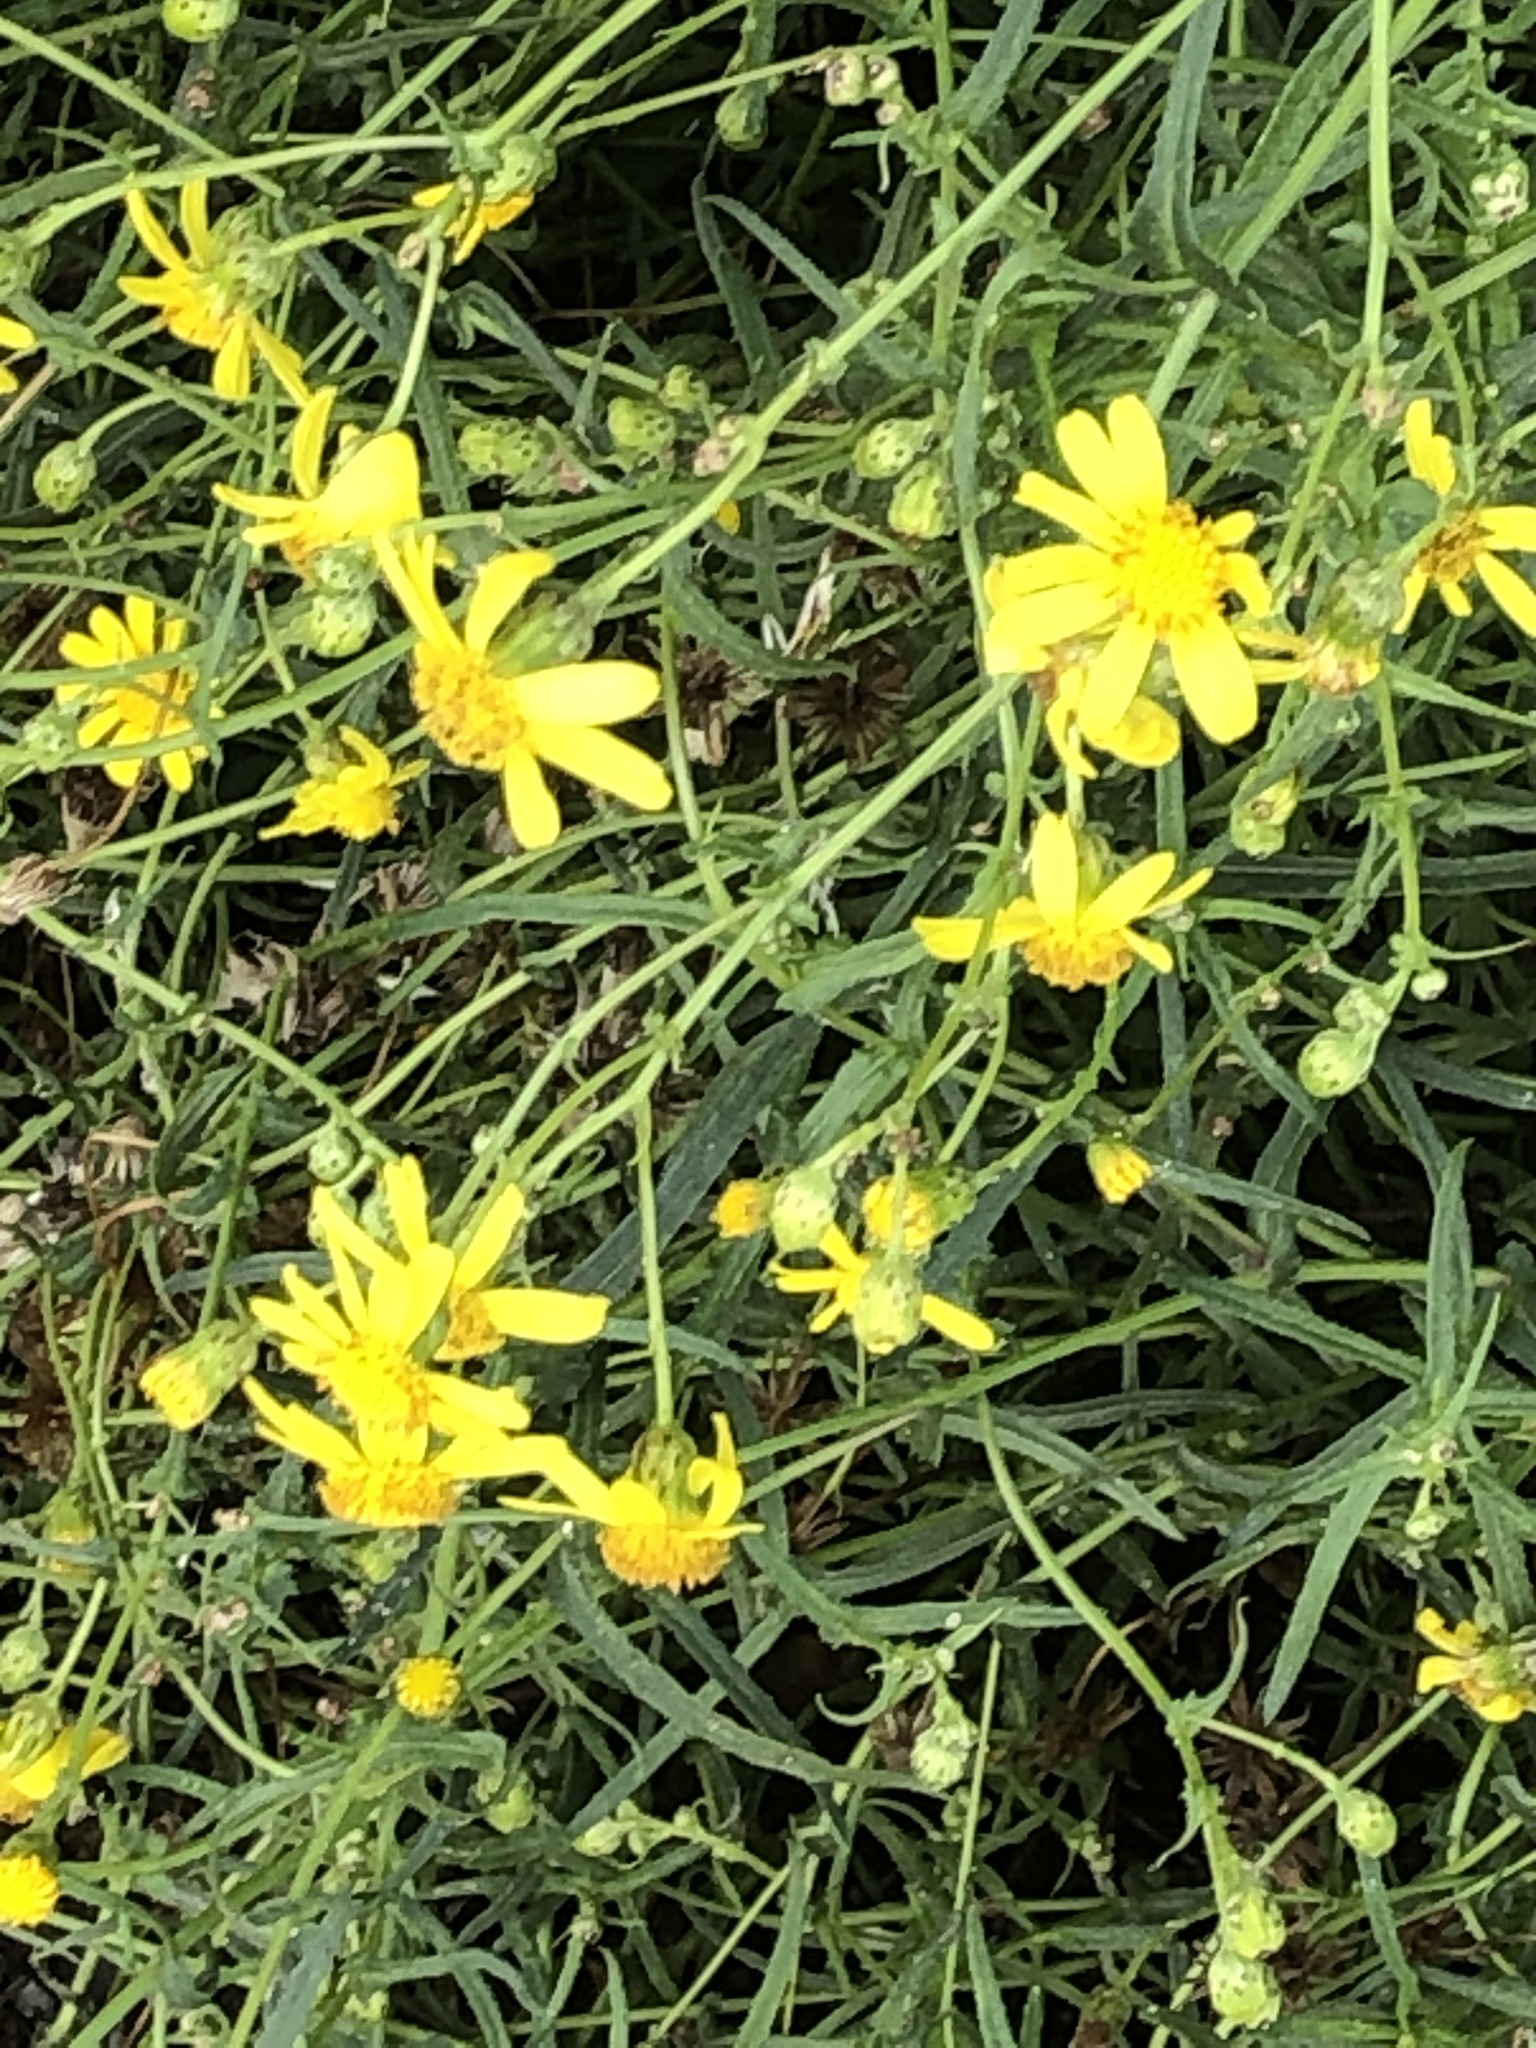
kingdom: Plantae
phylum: Tracheophyta
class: Magnoliopsida
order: Asterales
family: Asteraceae
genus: Senecio
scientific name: Senecio inaequidens
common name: Narrow-leaved ragwort
